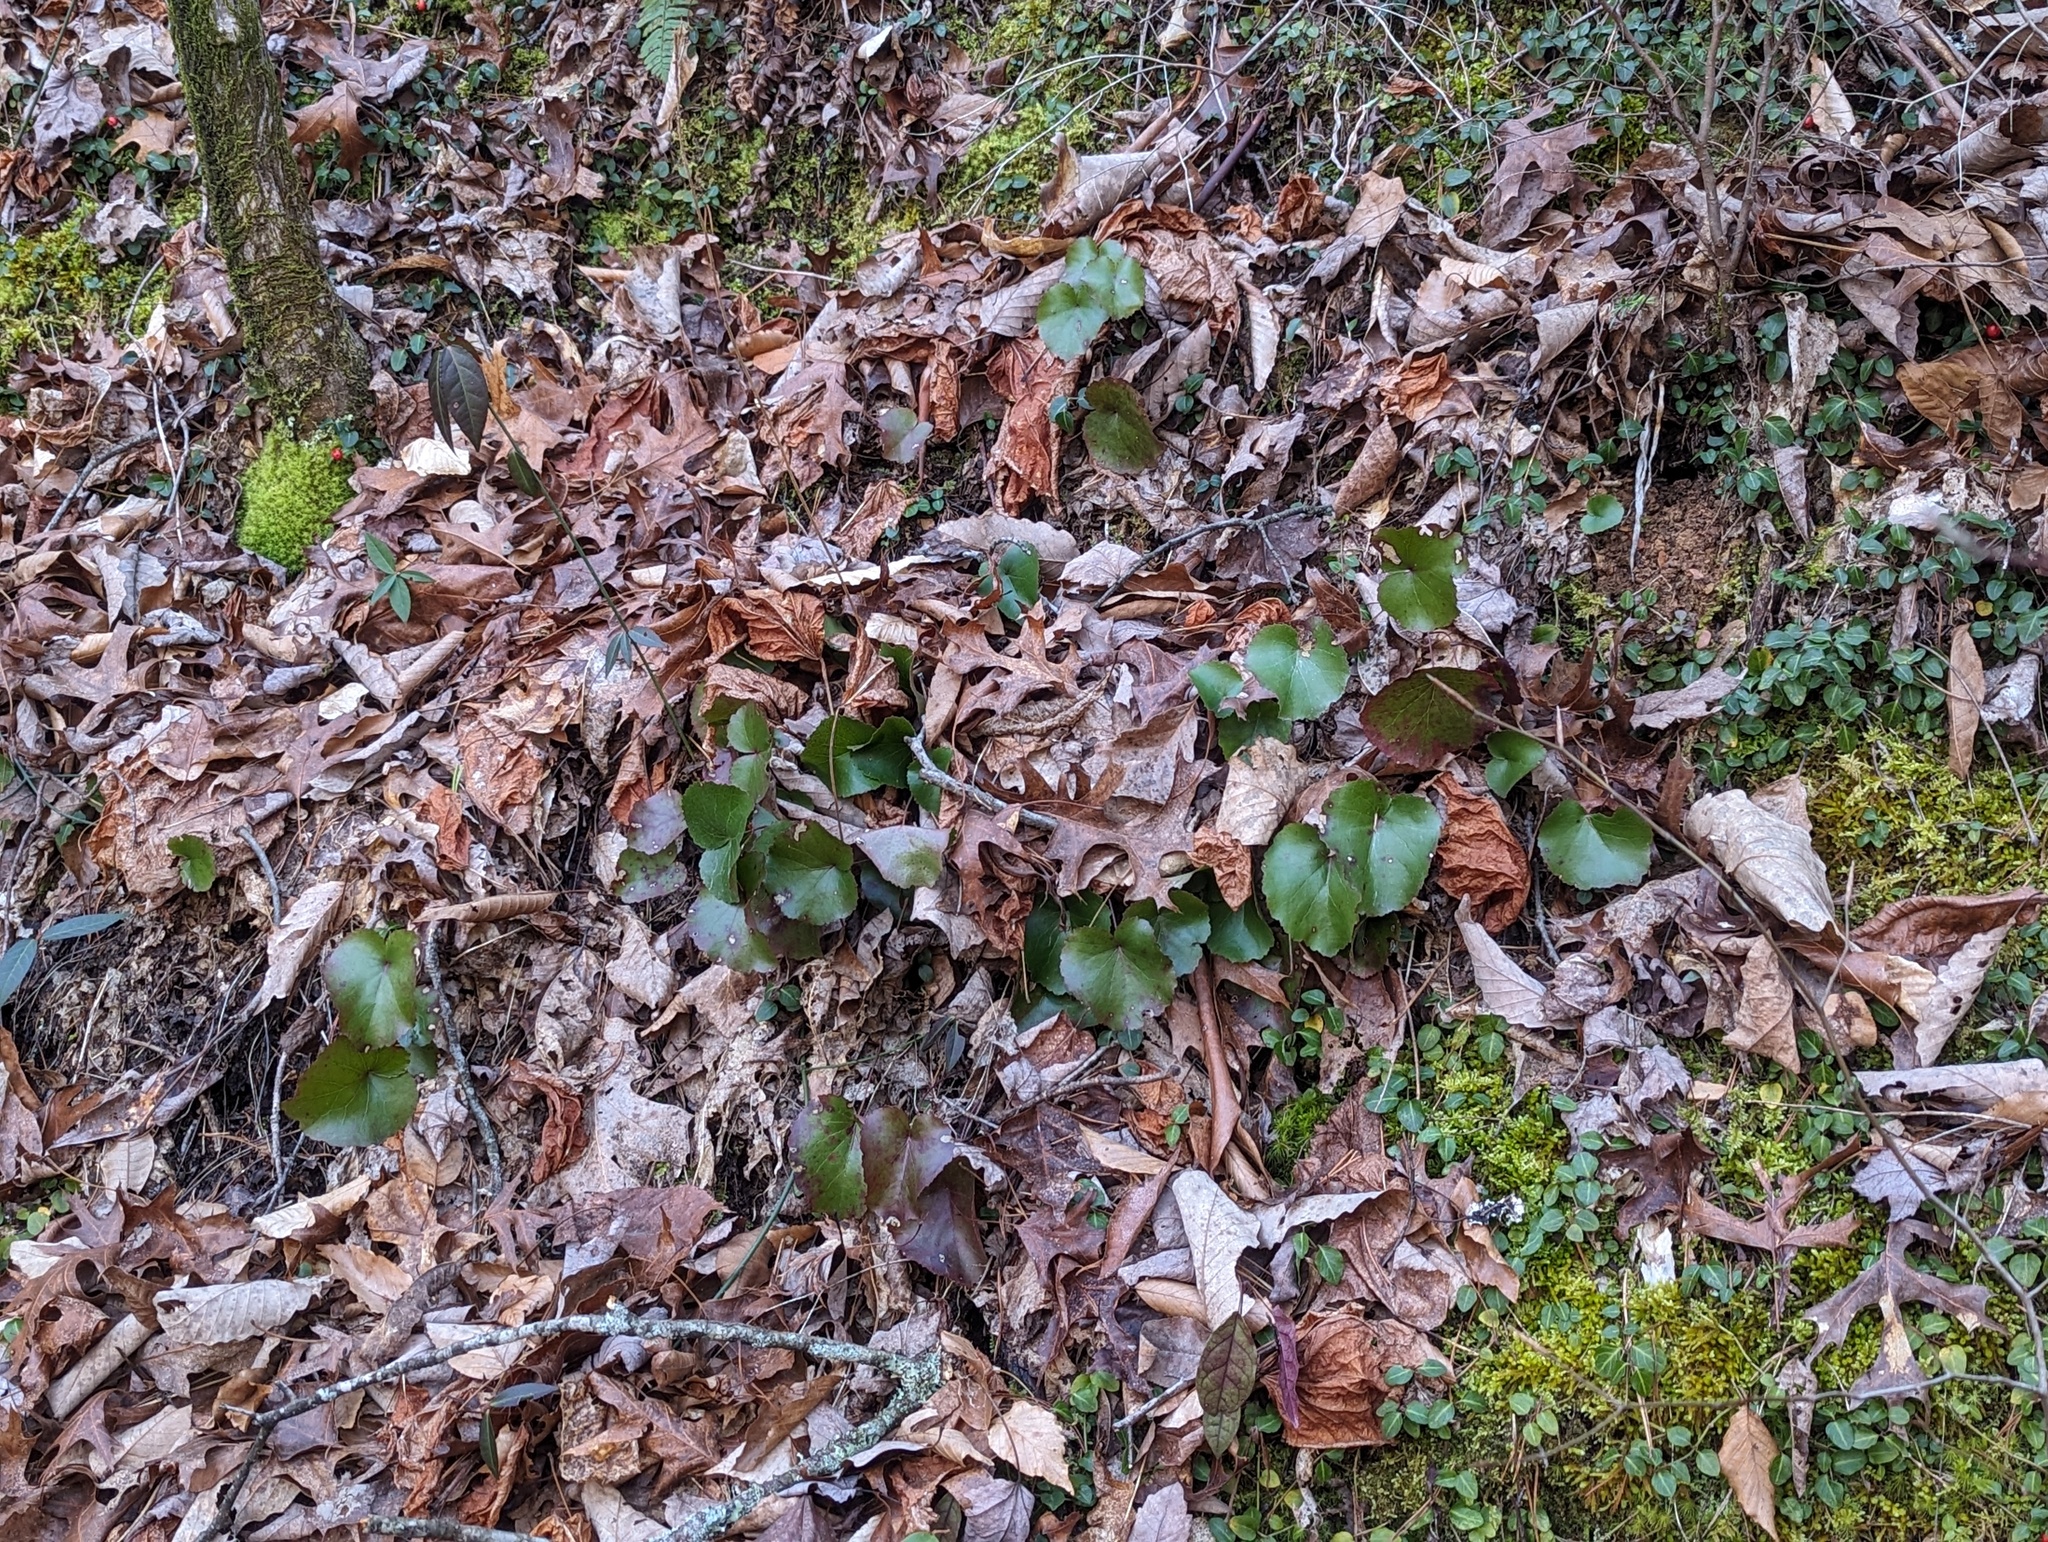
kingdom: Plantae
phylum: Tracheophyta
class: Magnoliopsida
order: Ericales
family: Diapensiaceae
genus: Galax
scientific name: Galax urceolata
